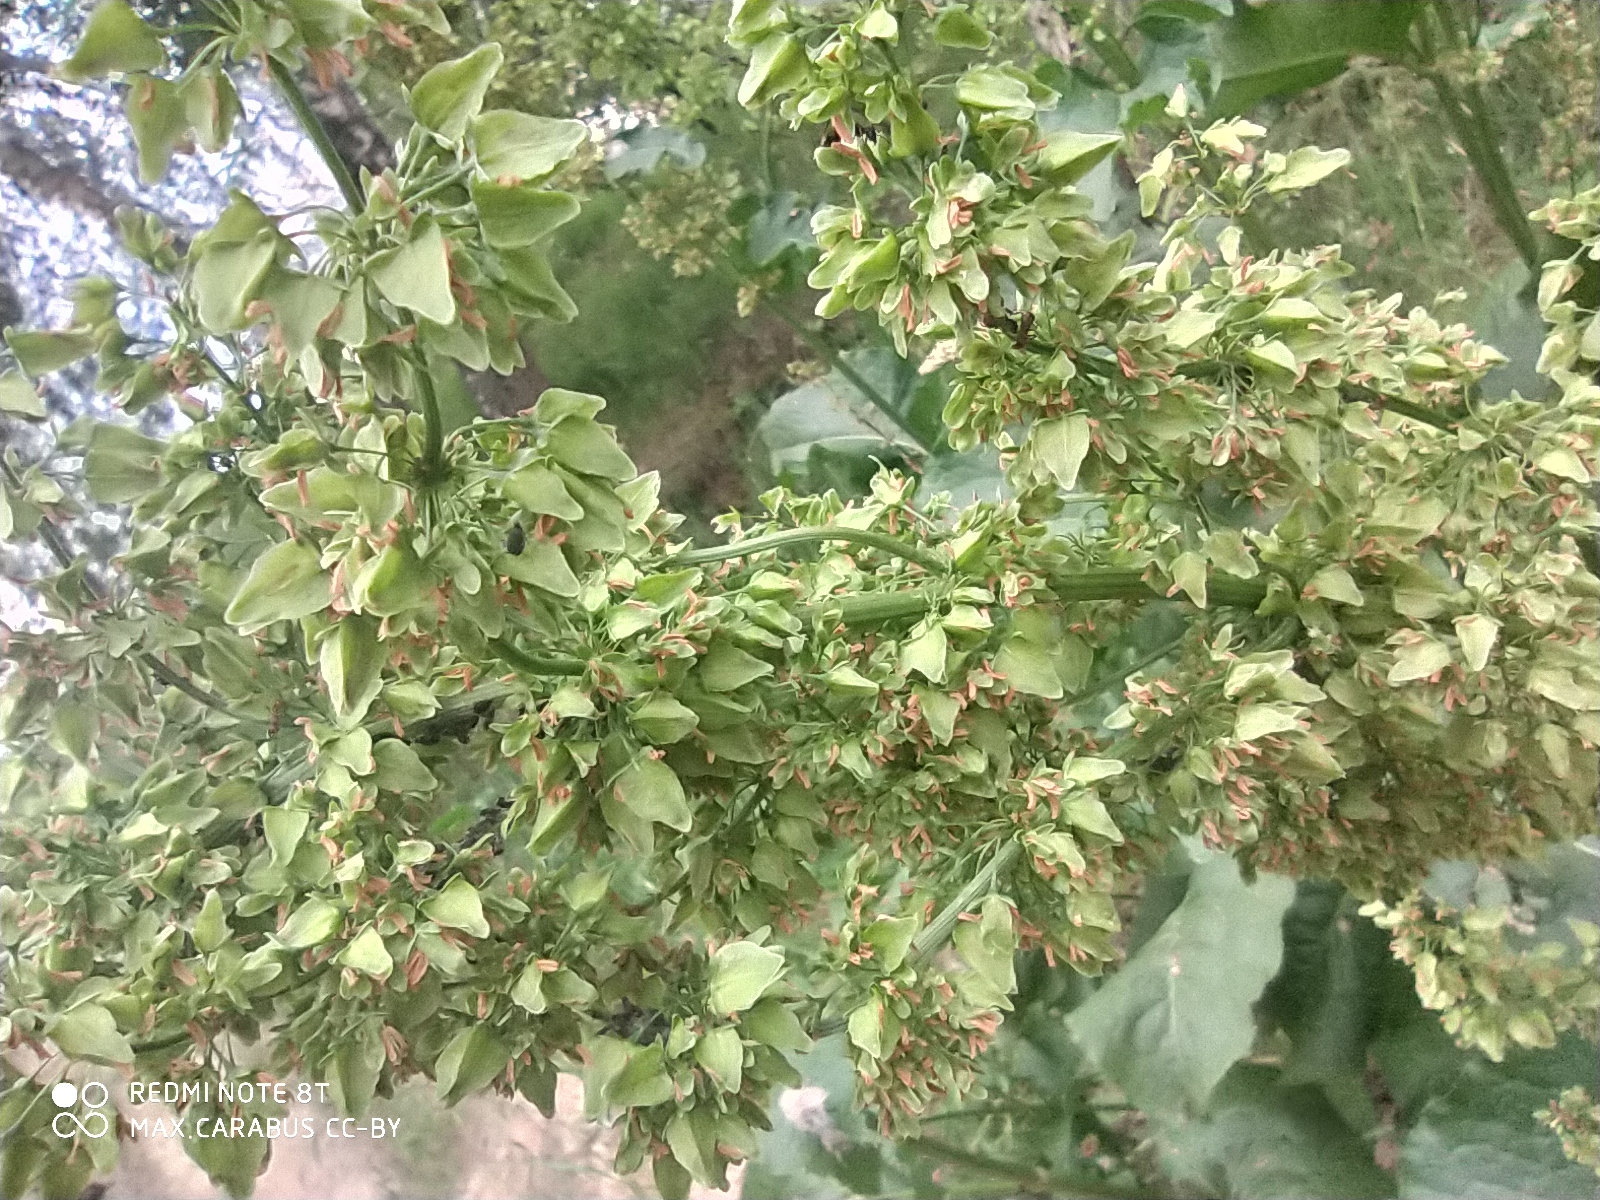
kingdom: Plantae
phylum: Tracheophyta
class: Magnoliopsida
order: Caryophyllales
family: Polygonaceae
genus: Rumex
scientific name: Rumex confertus
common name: Russian dock
